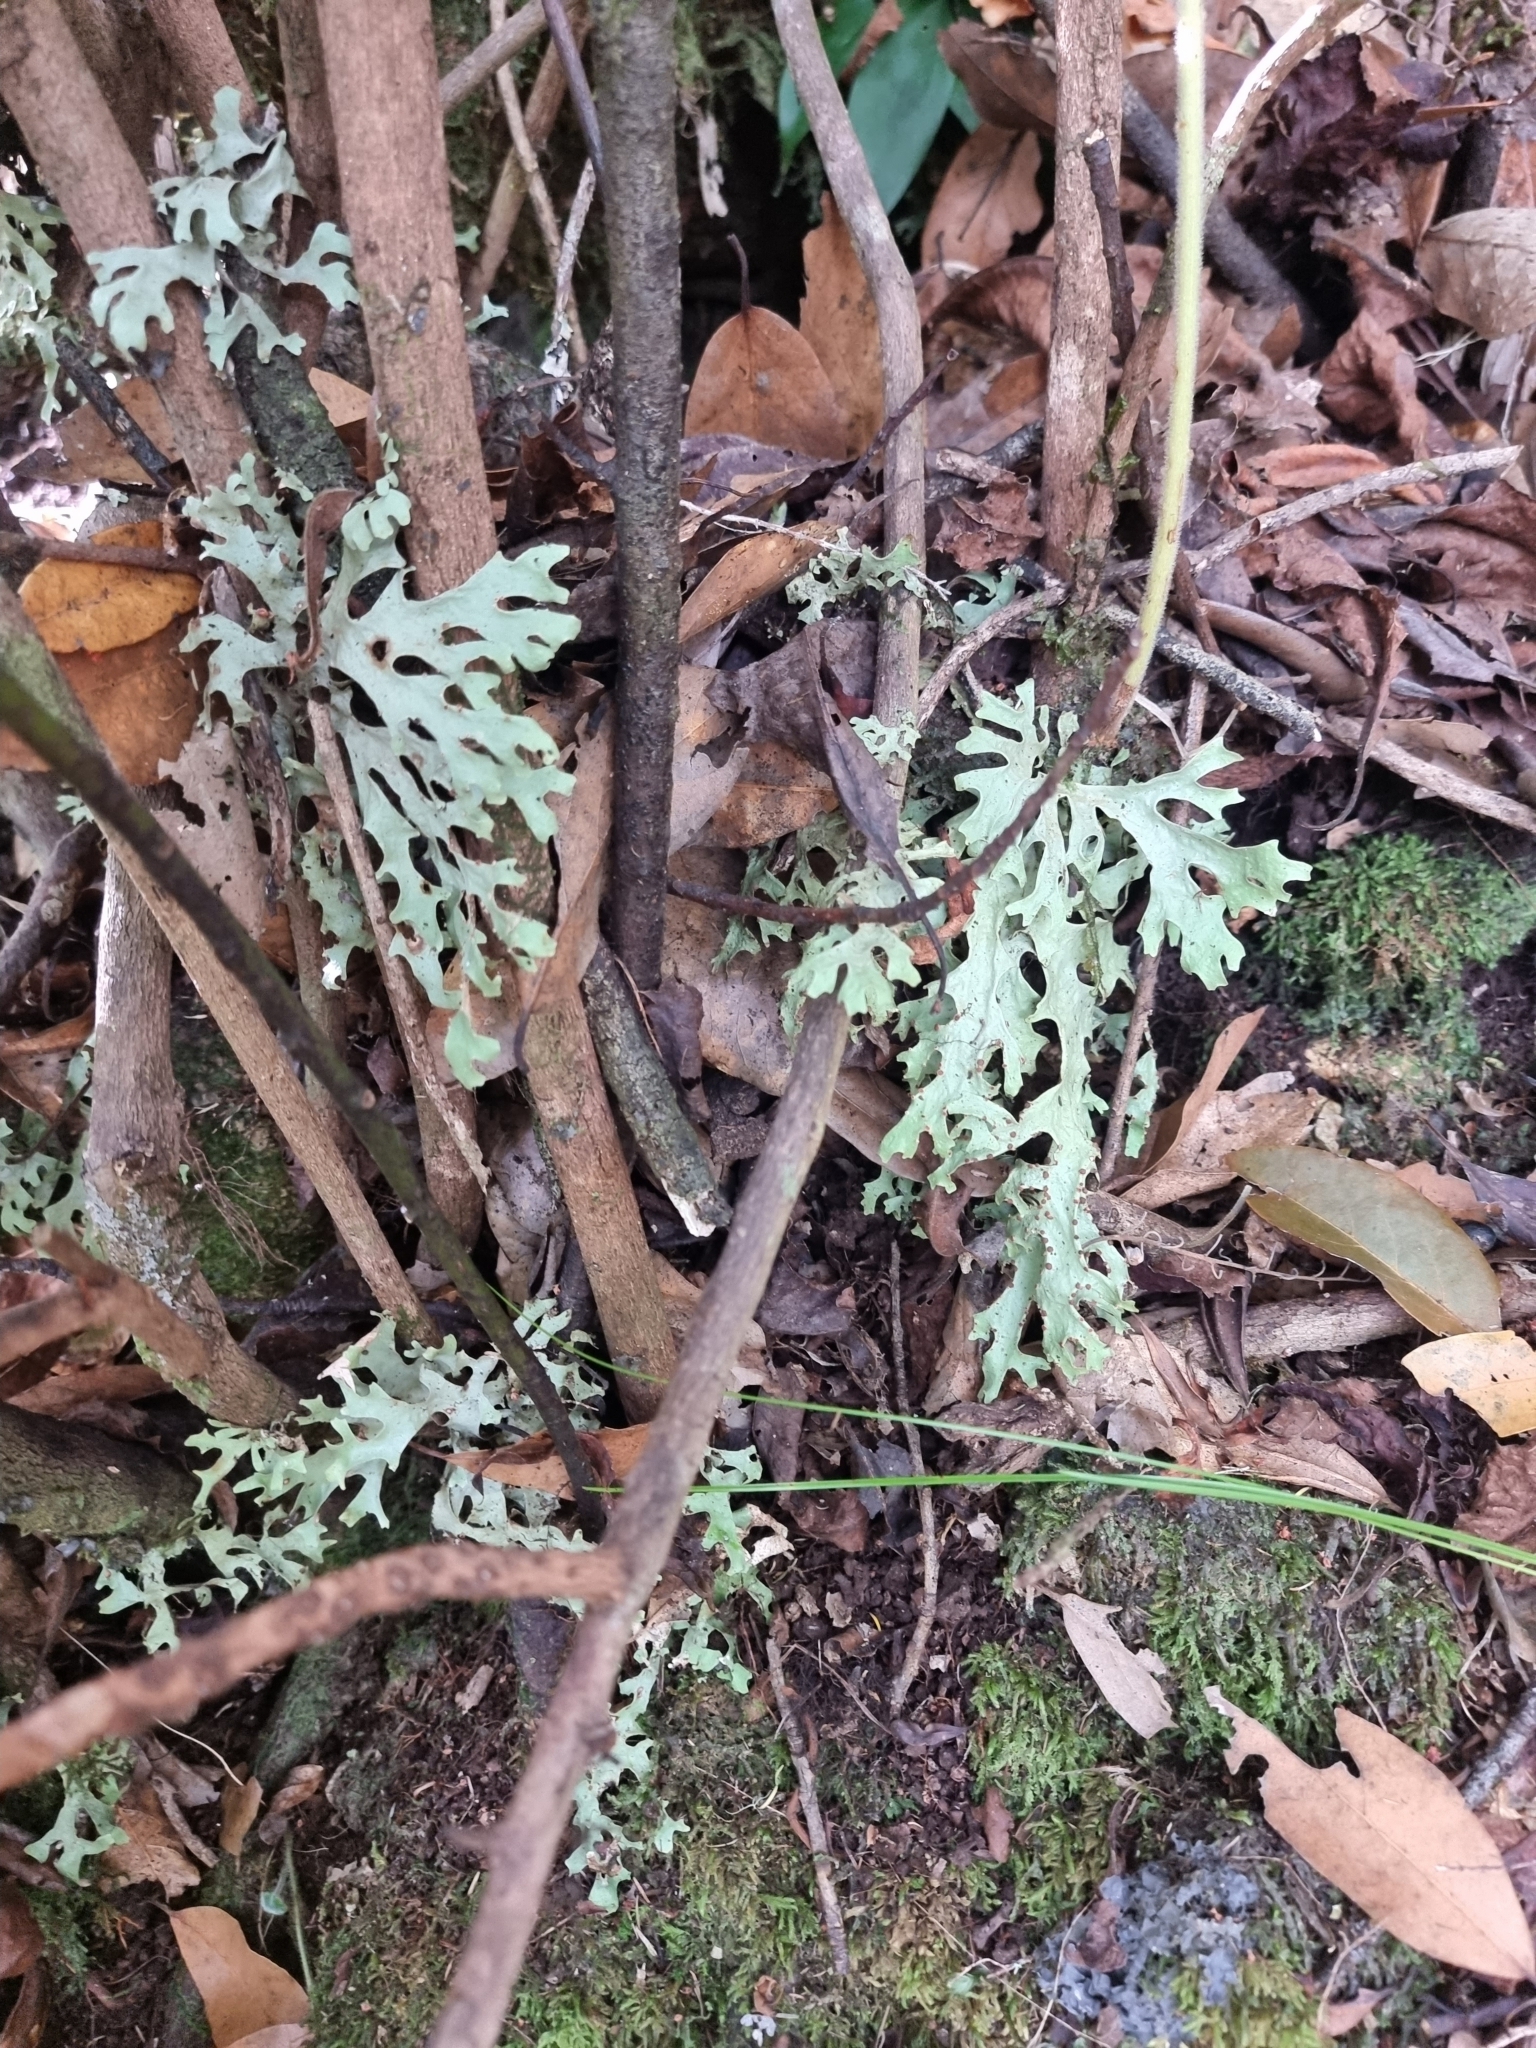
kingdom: Fungi
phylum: Ascomycota
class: Lecanoromycetes
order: Peltigerales
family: Lobariaceae
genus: Sticta
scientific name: Sticta canariensis
